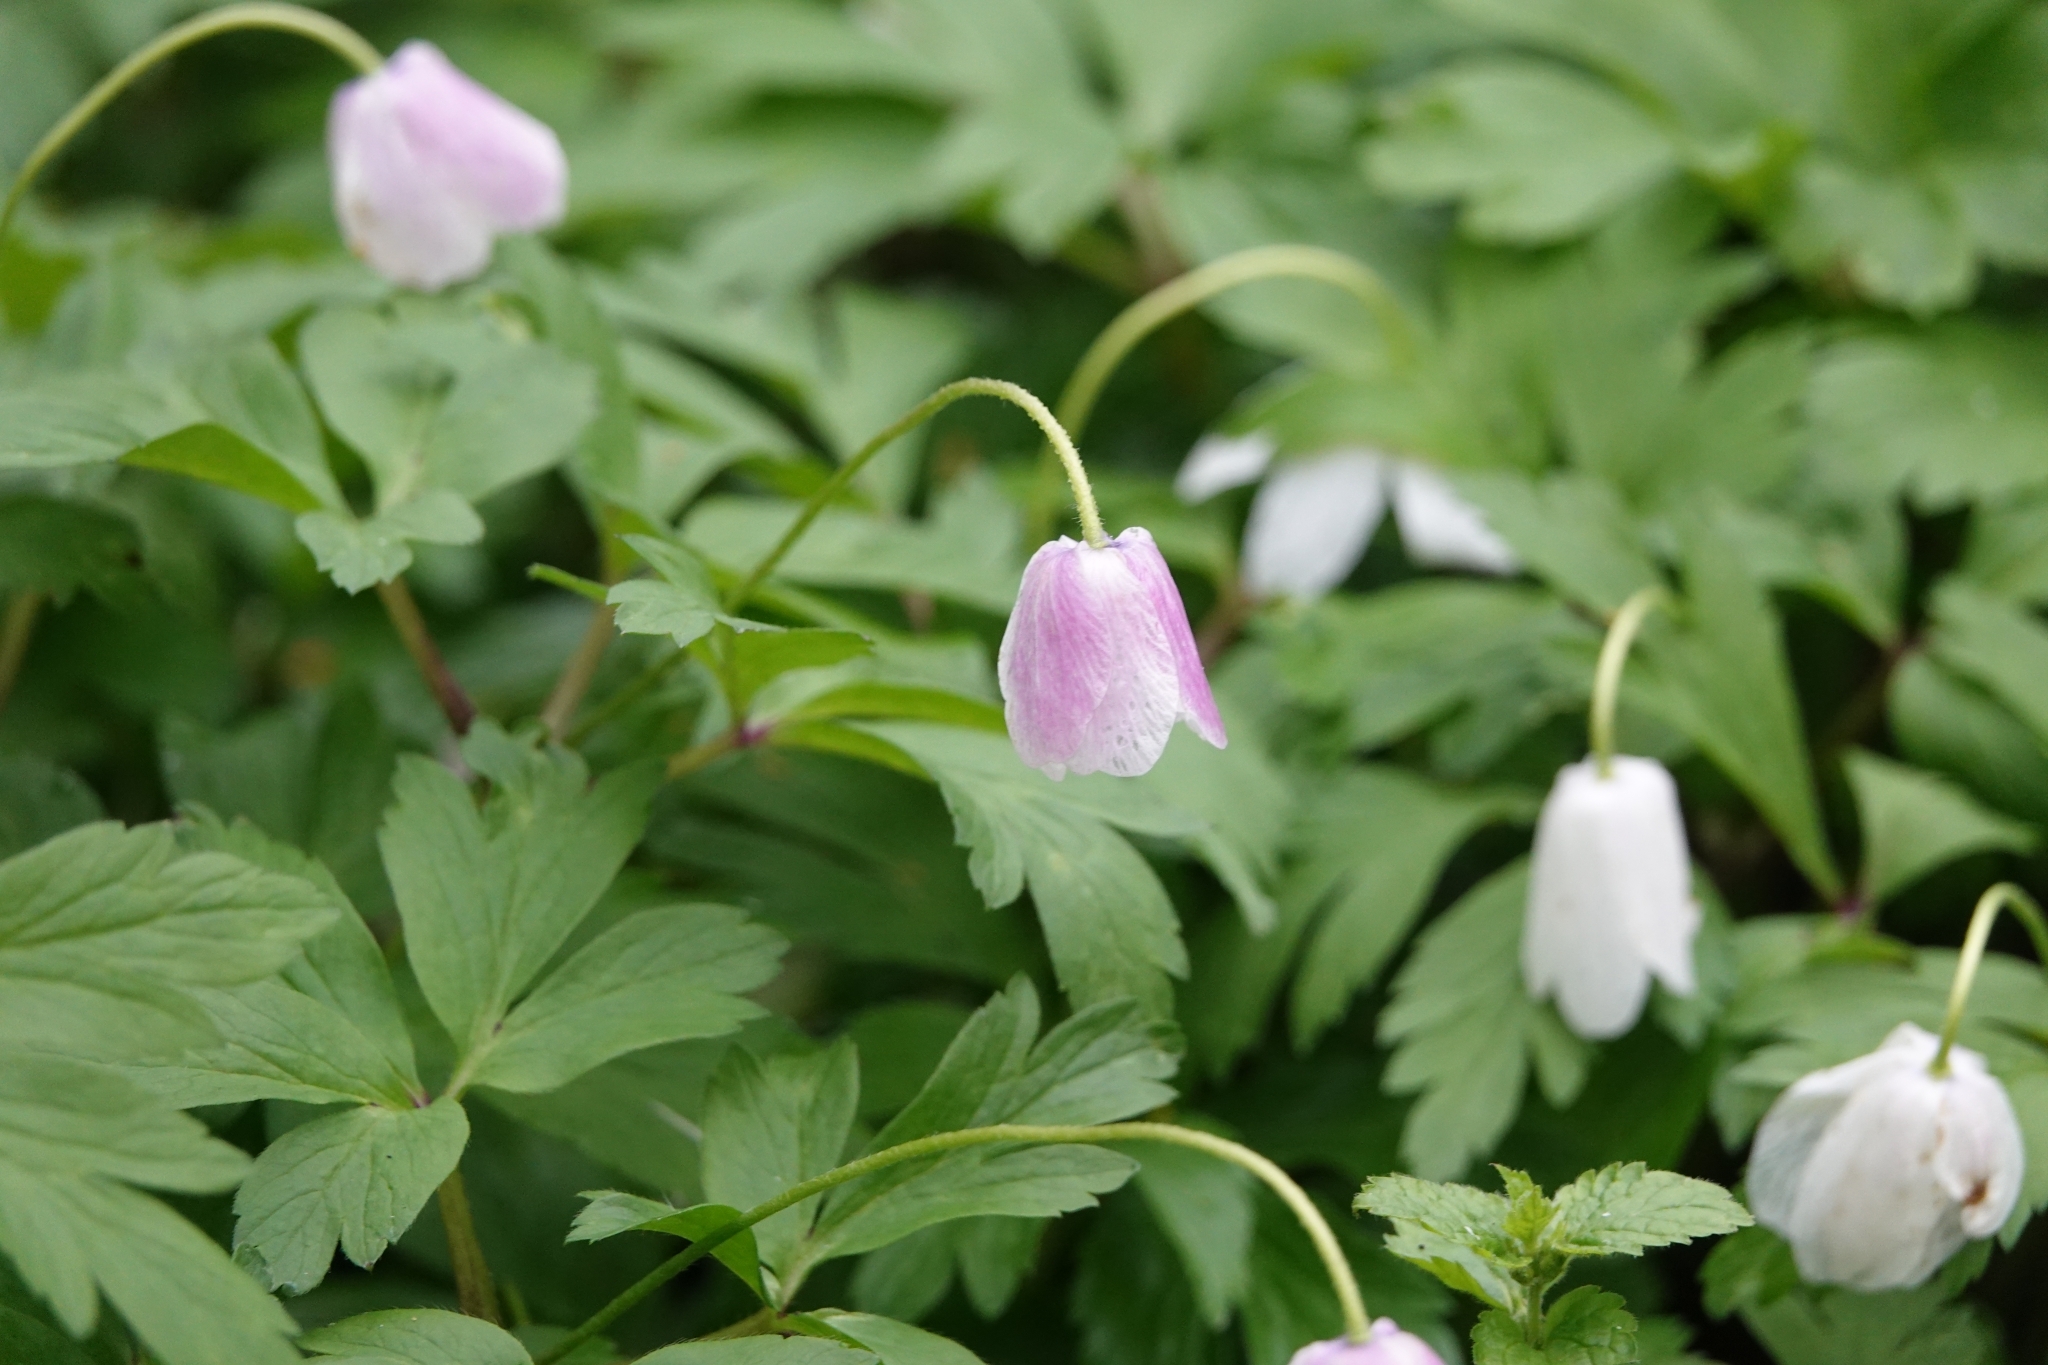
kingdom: Plantae
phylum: Tracheophyta
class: Magnoliopsida
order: Ranunculales
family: Ranunculaceae
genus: Anemone
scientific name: Anemone nemorosa
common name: Wood anemone
